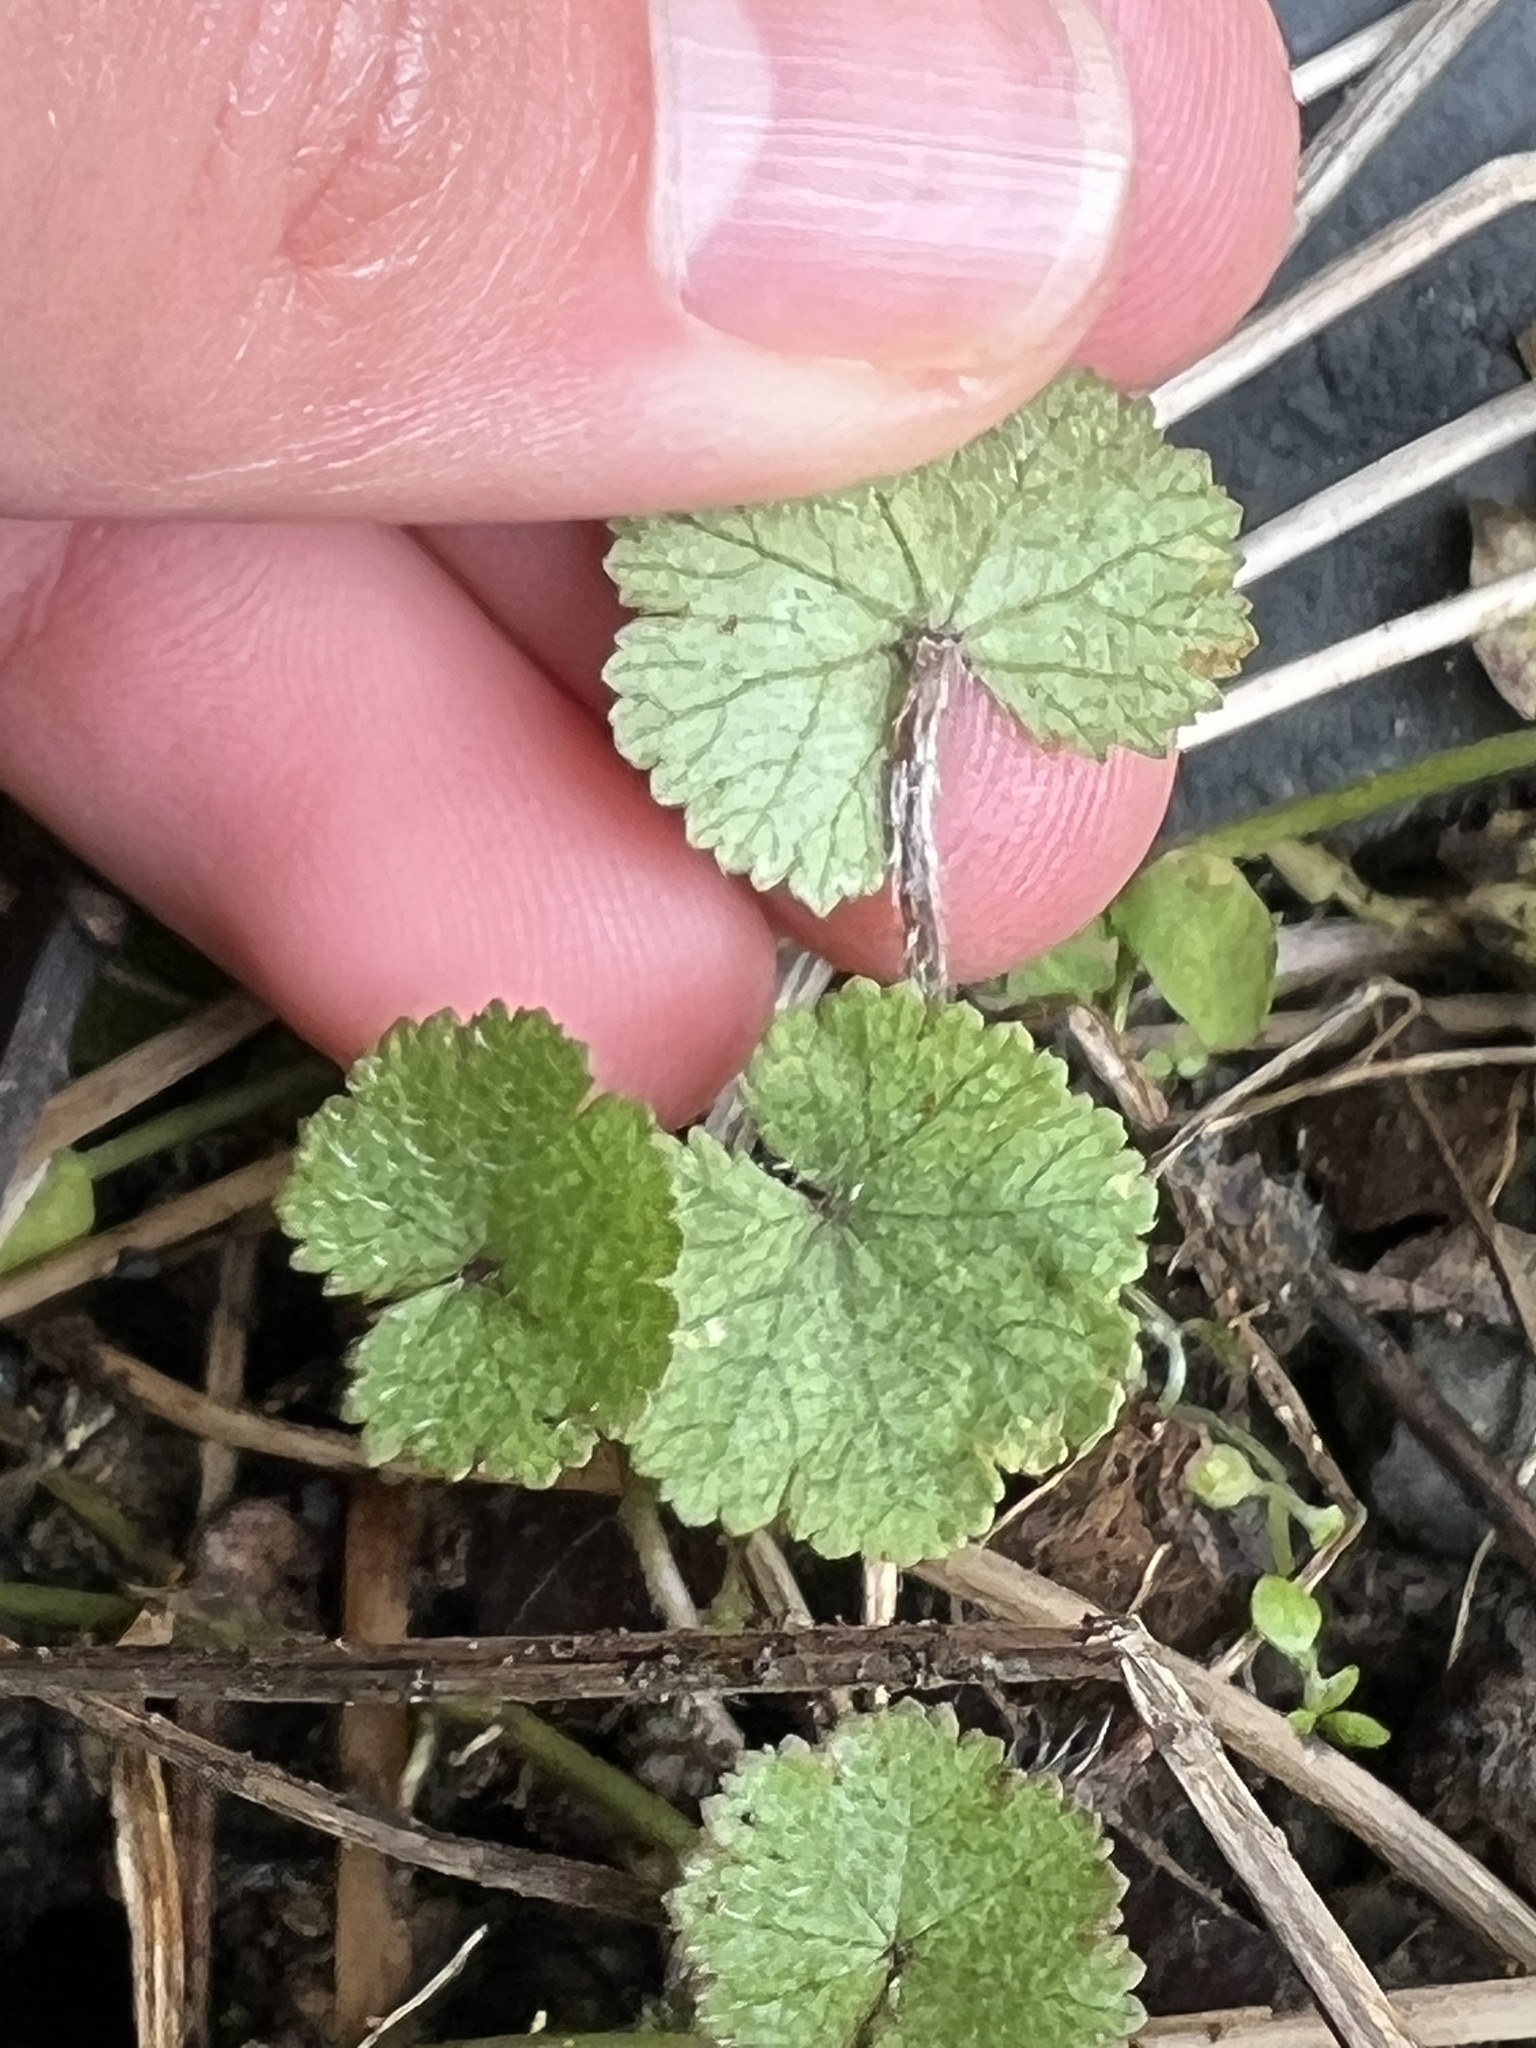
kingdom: Plantae
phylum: Tracheophyta
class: Magnoliopsida
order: Apiales
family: Araliaceae
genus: Hydrocotyle
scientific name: Hydrocotyle moschata
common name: Hairy pennywort
